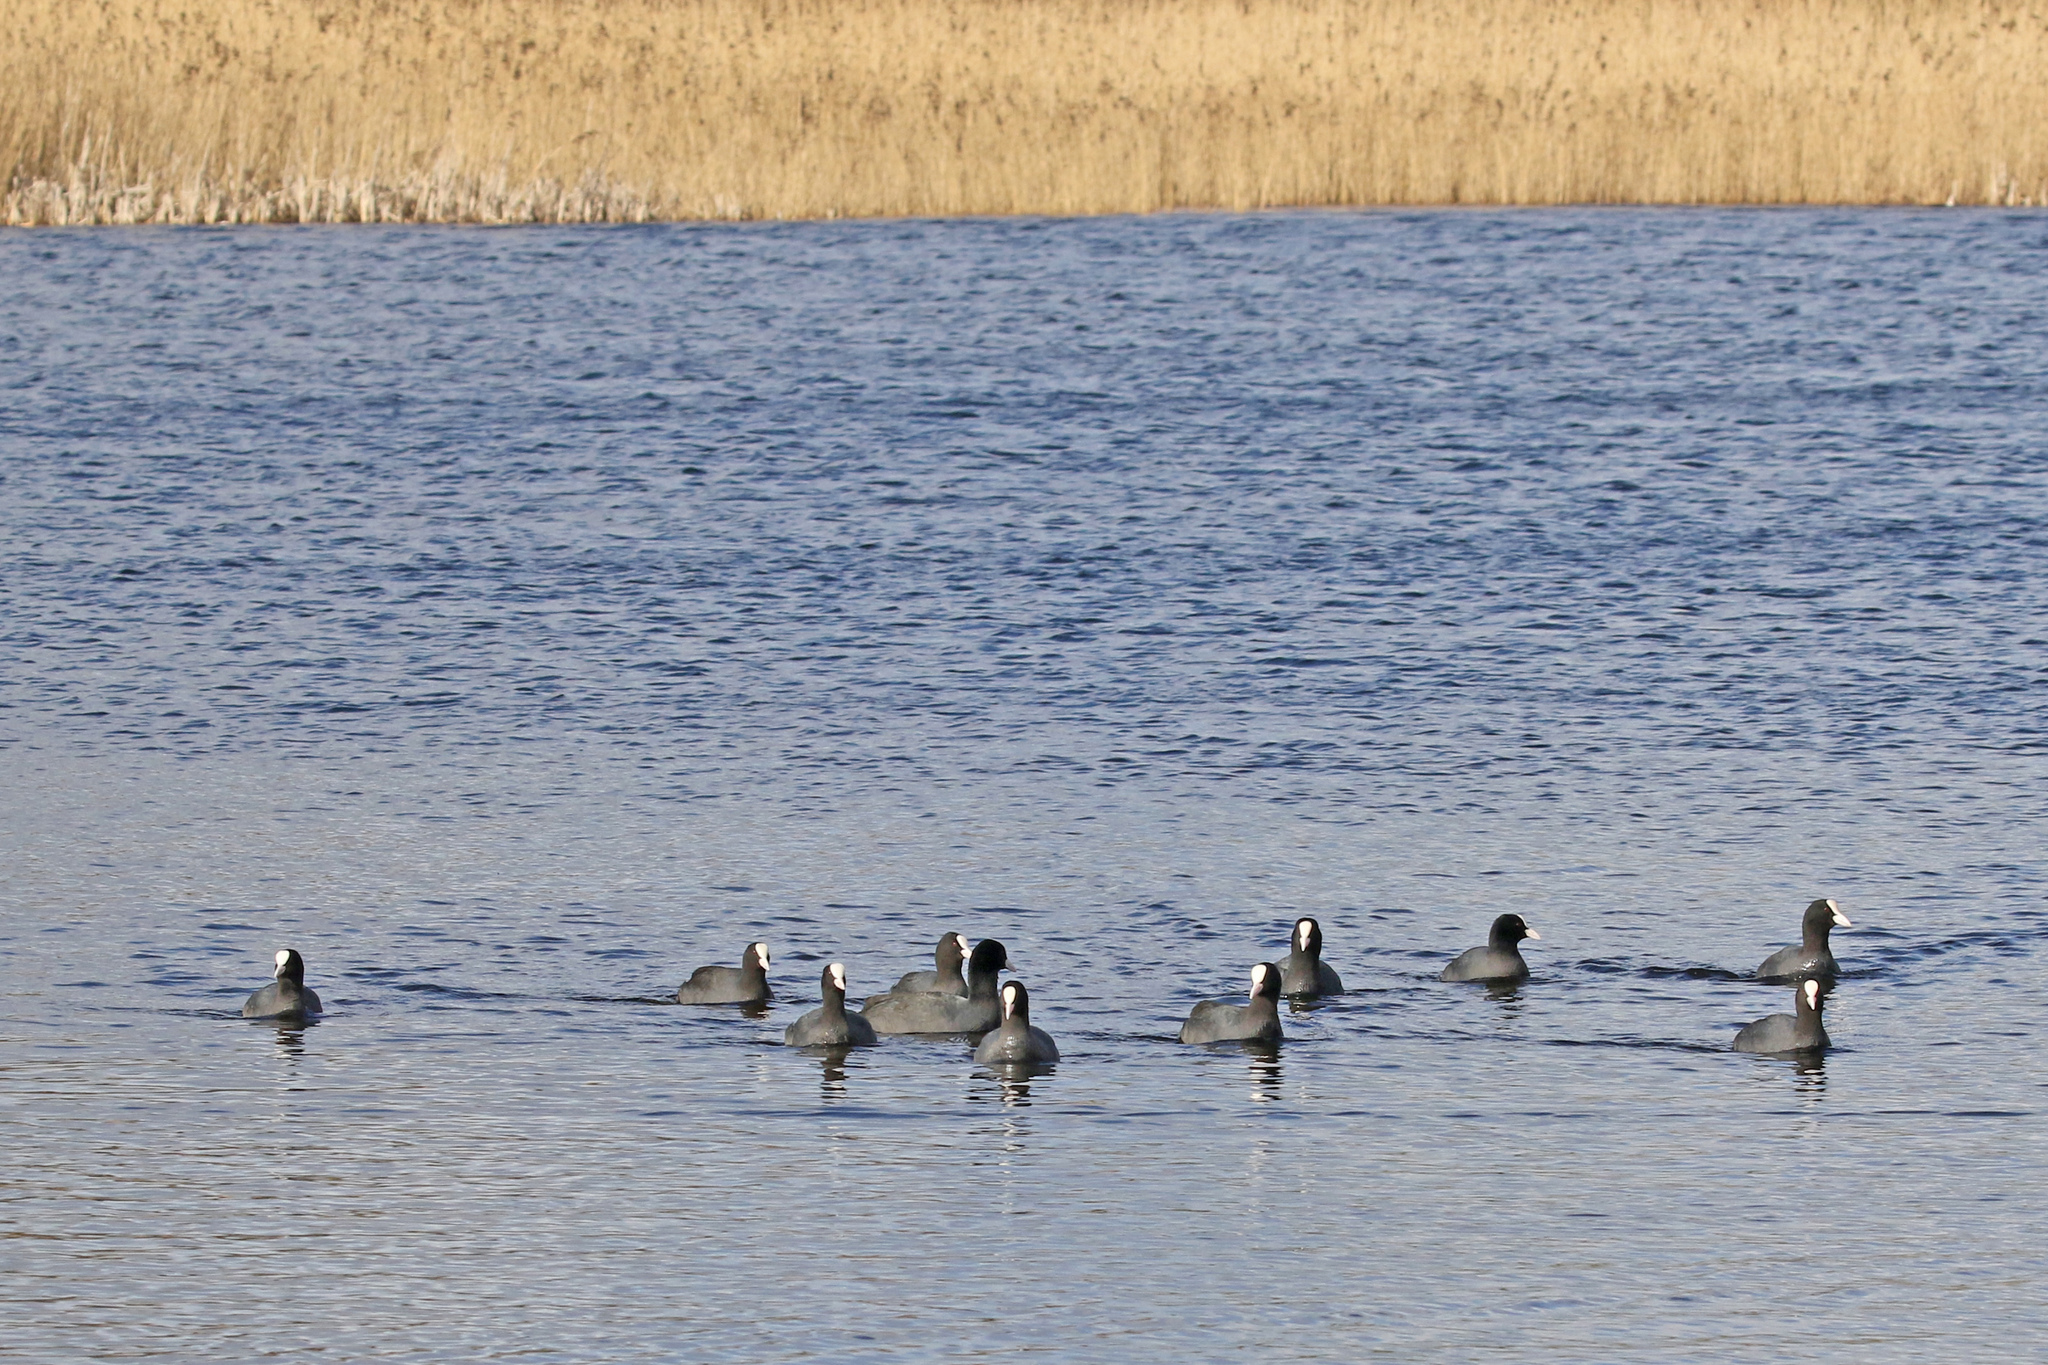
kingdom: Animalia
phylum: Chordata
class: Aves
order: Gruiformes
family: Rallidae
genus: Fulica
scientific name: Fulica atra
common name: Eurasian coot
